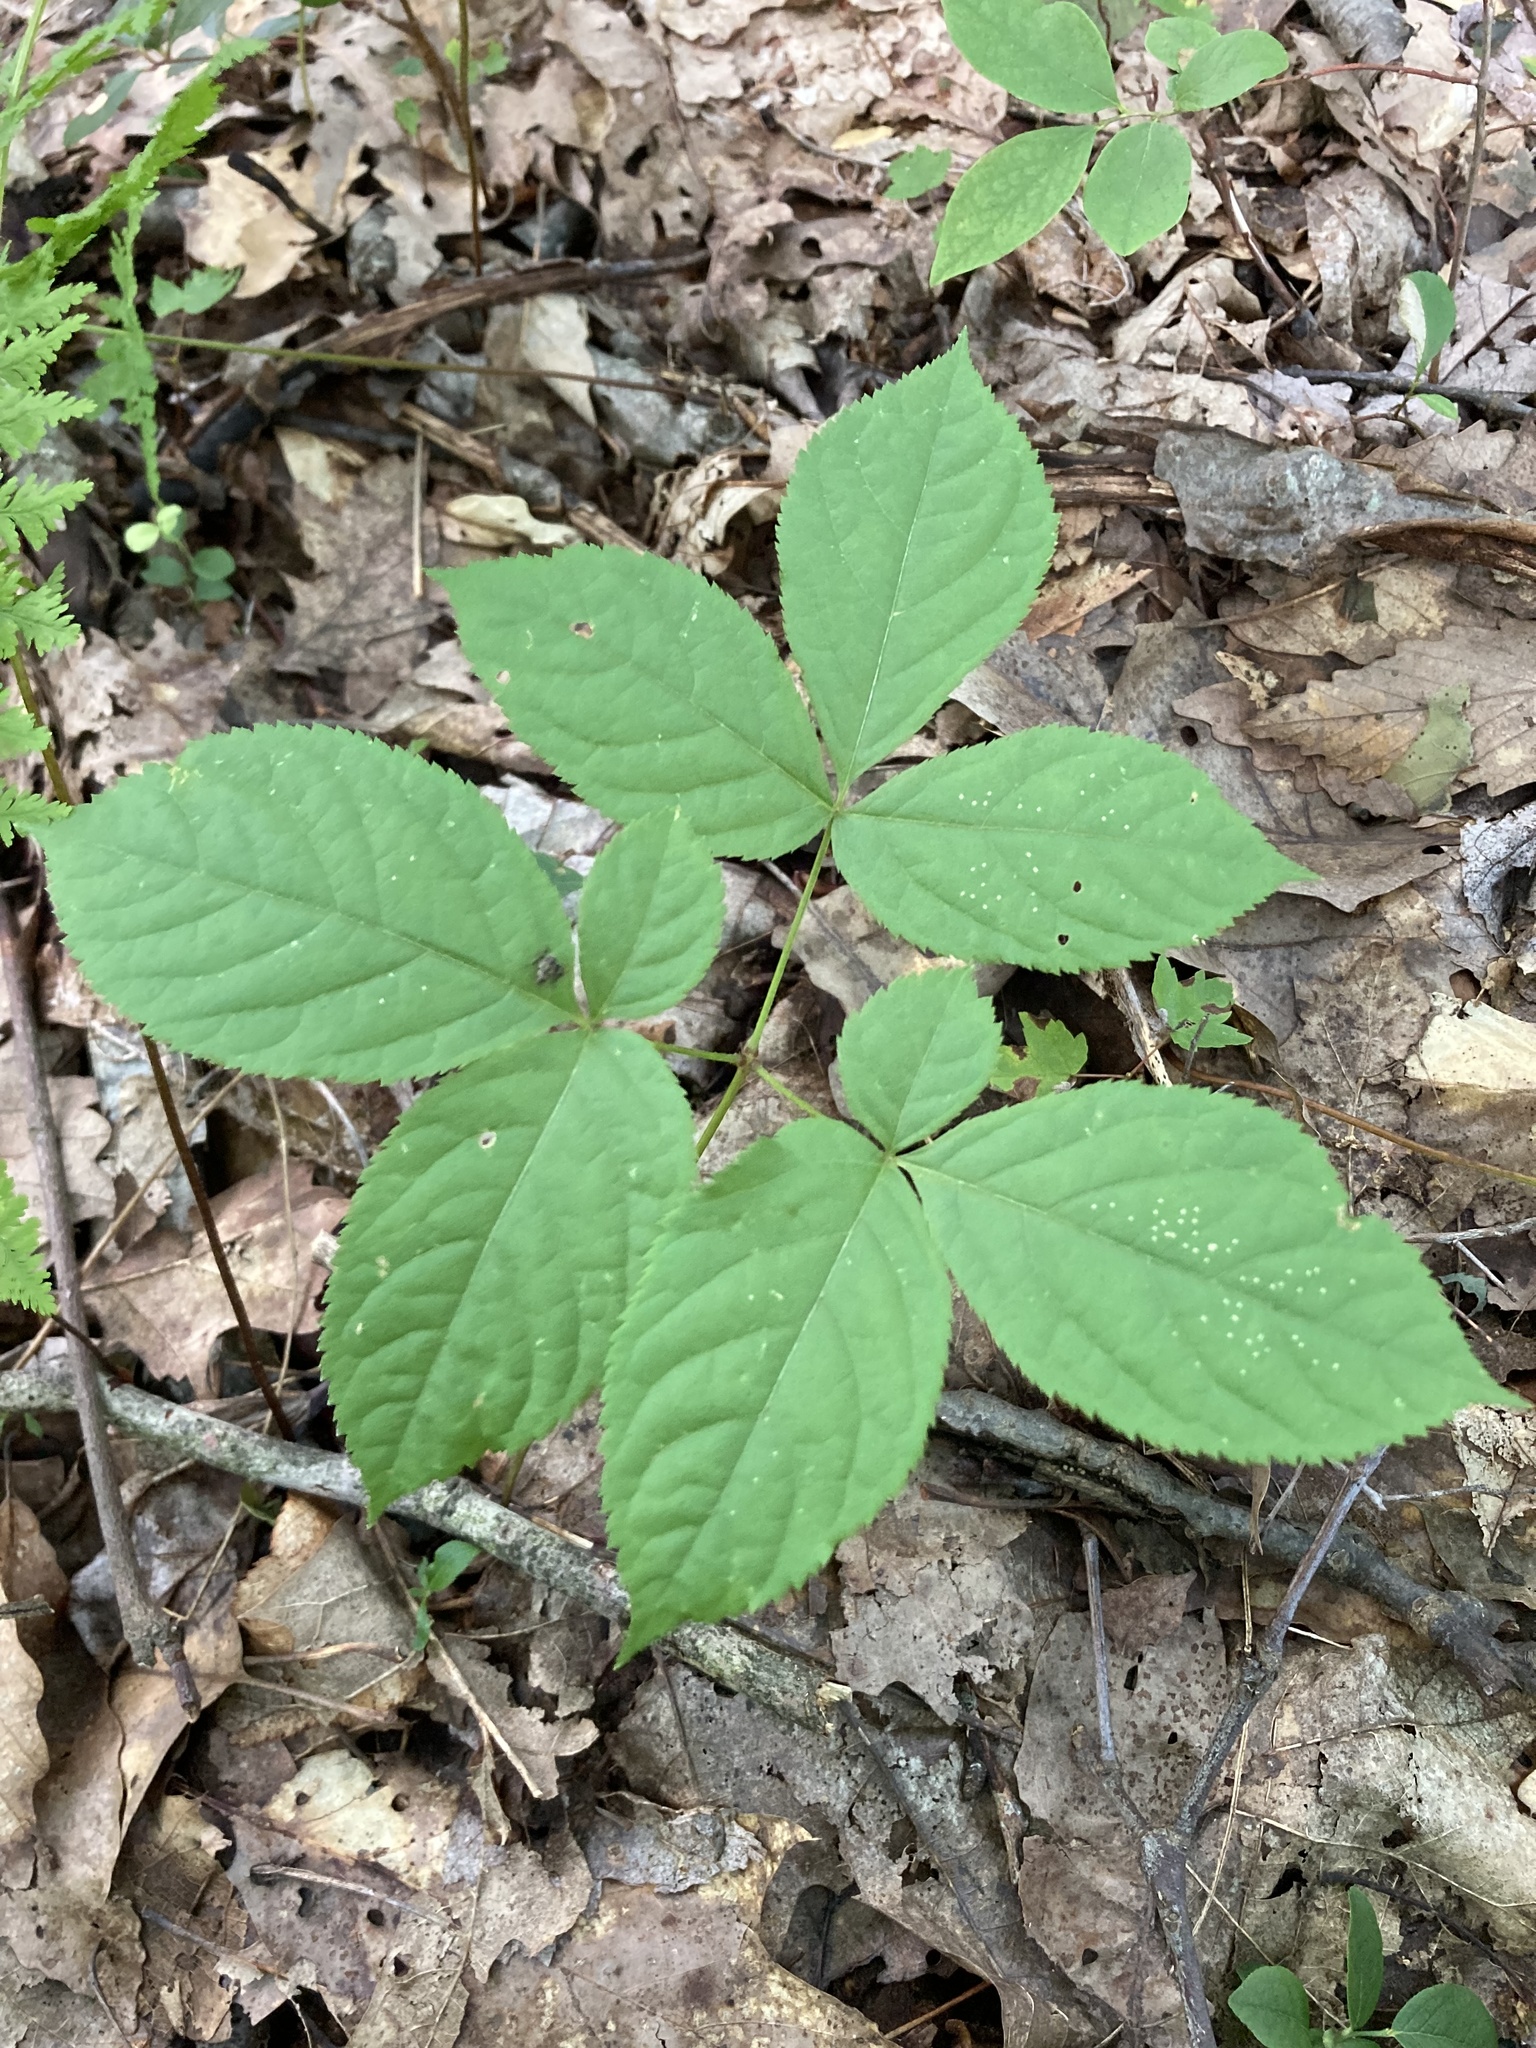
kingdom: Plantae
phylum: Tracheophyta
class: Magnoliopsida
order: Apiales
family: Araliaceae
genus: Aralia
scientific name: Aralia nudicaulis
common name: Wild sarsaparilla
